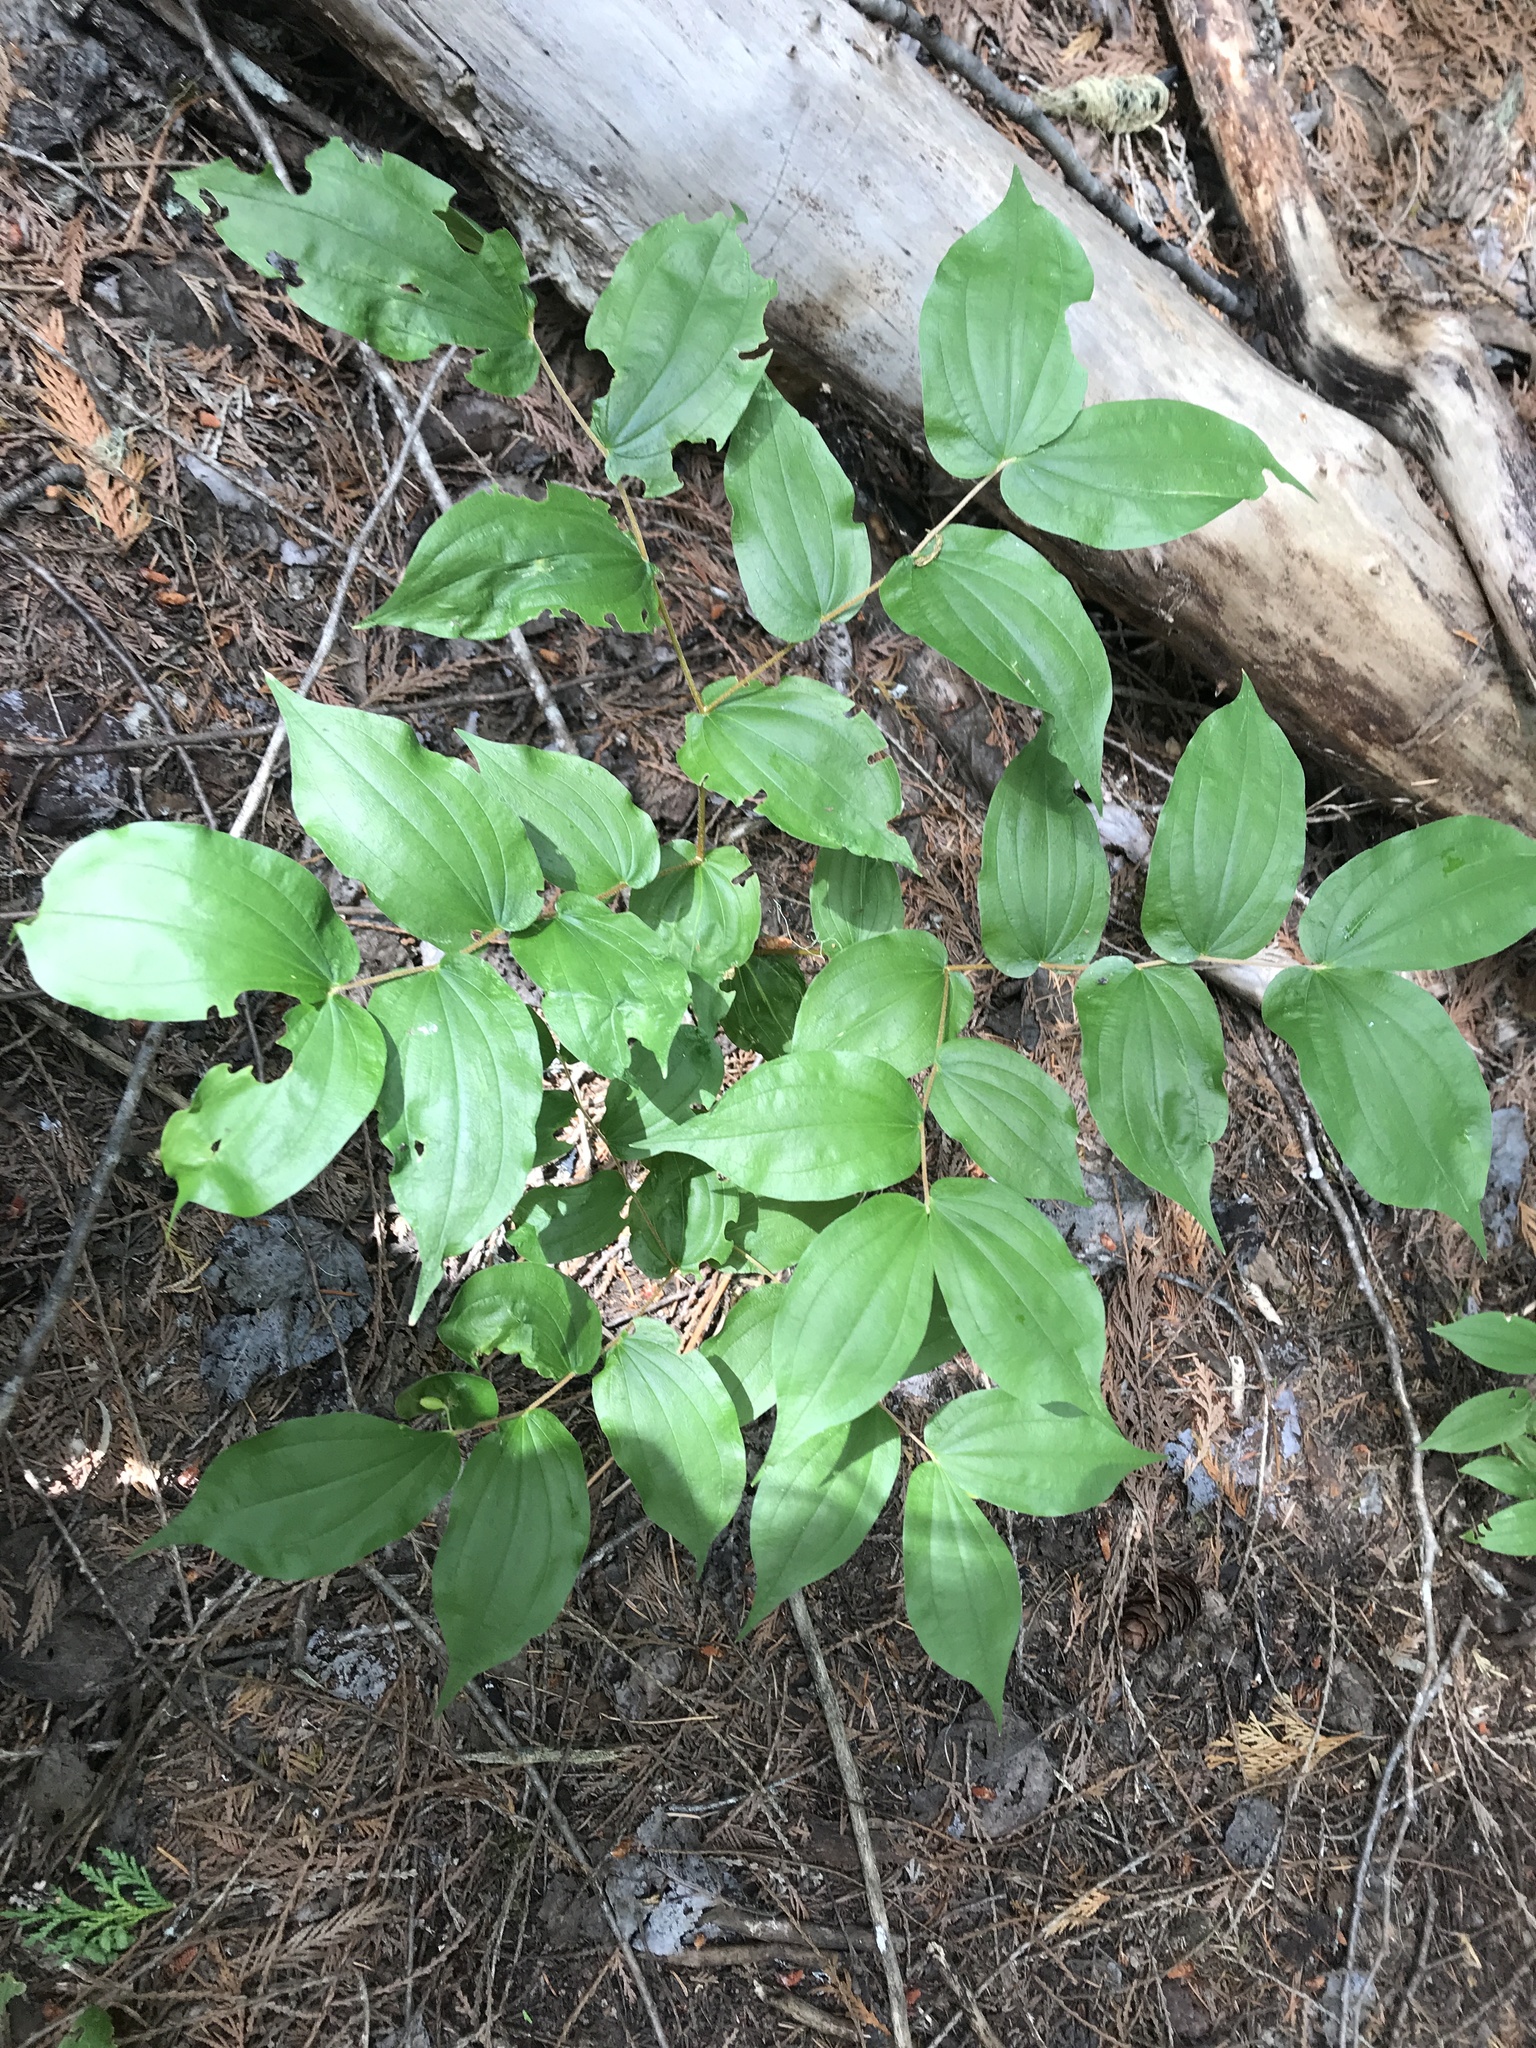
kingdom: Plantae
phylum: Tracheophyta
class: Liliopsida
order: Liliales
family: Liliaceae
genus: Prosartes
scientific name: Prosartes hookeri
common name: Fairy-bells
